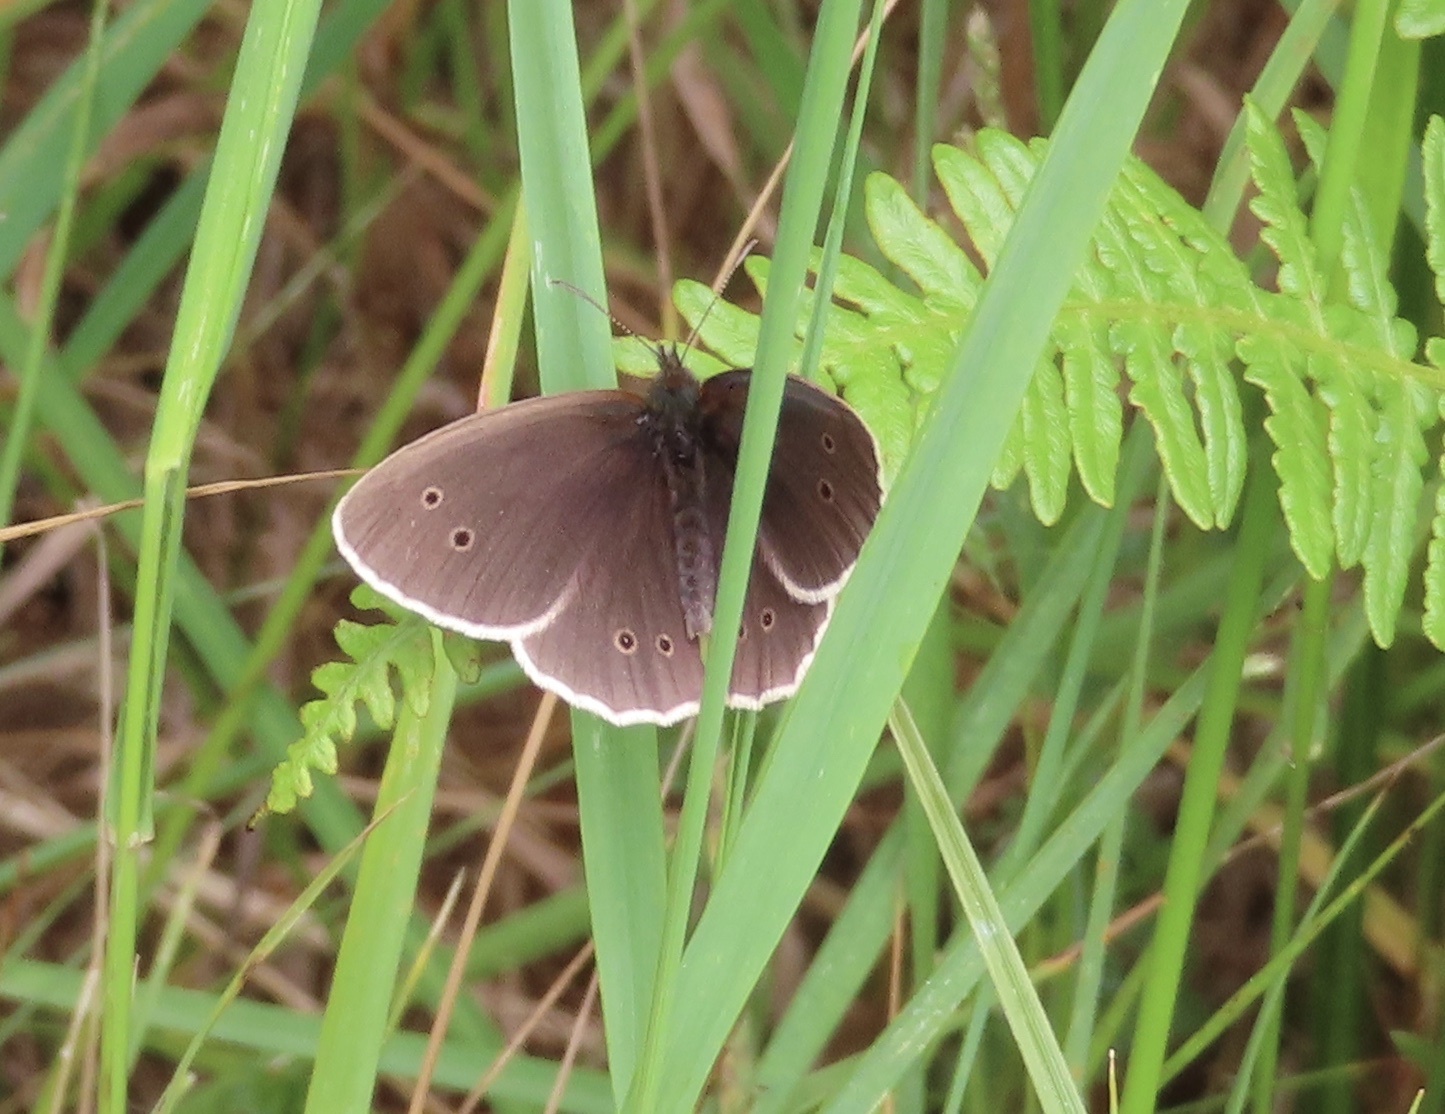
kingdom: Animalia
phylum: Arthropoda
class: Insecta
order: Lepidoptera
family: Nymphalidae
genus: Aphantopus
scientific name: Aphantopus hyperantus
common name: Ringlet
